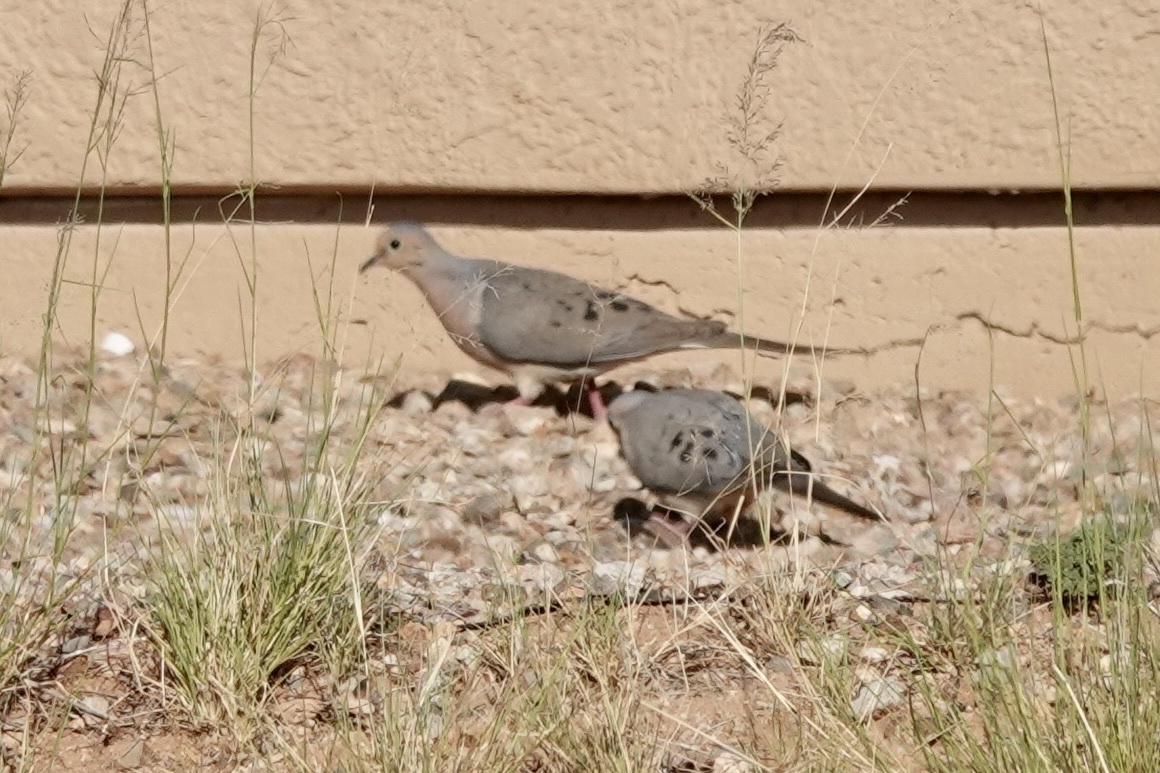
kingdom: Animalia
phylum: Chordata
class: Aves
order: Columbiformes
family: Columbidae
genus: Zenaida
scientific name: Zenaida macroura
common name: Mourning dove
